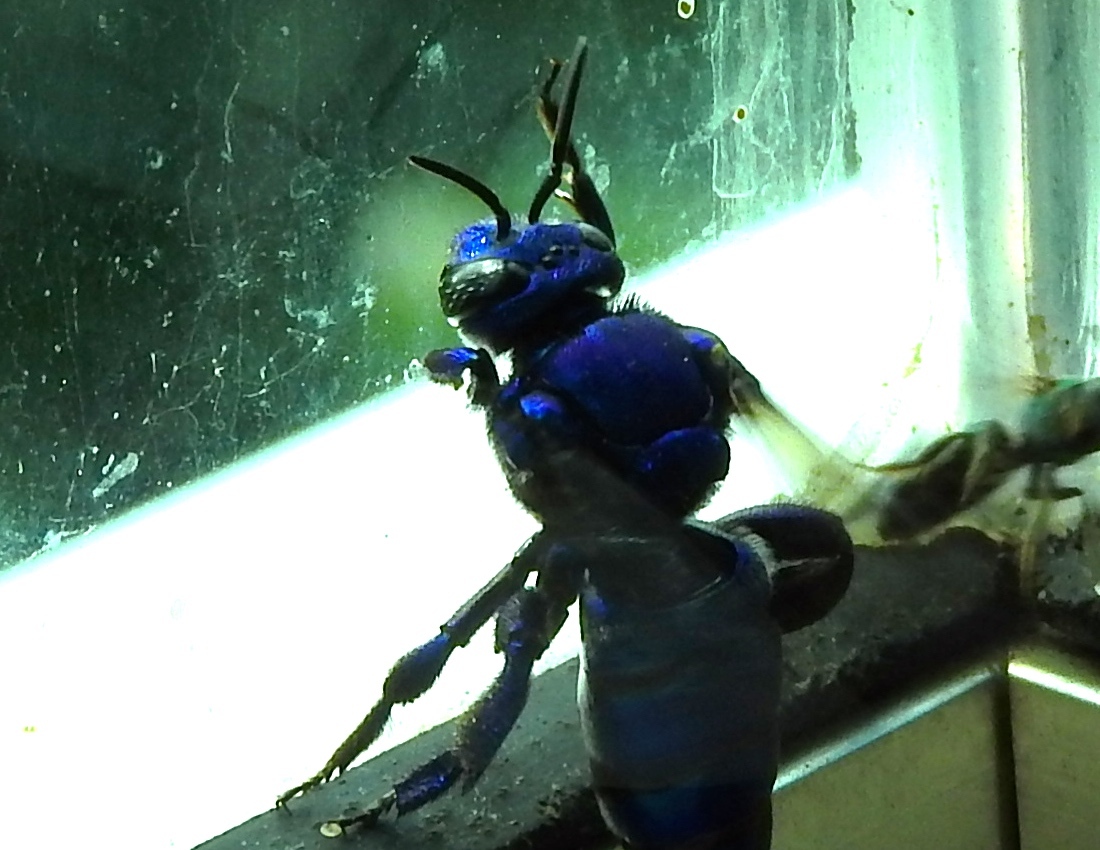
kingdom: Animalia
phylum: Arthropoda
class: Insecta
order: Hymenoptera
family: Apidae
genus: Exaerete
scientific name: Exaerete azteca
